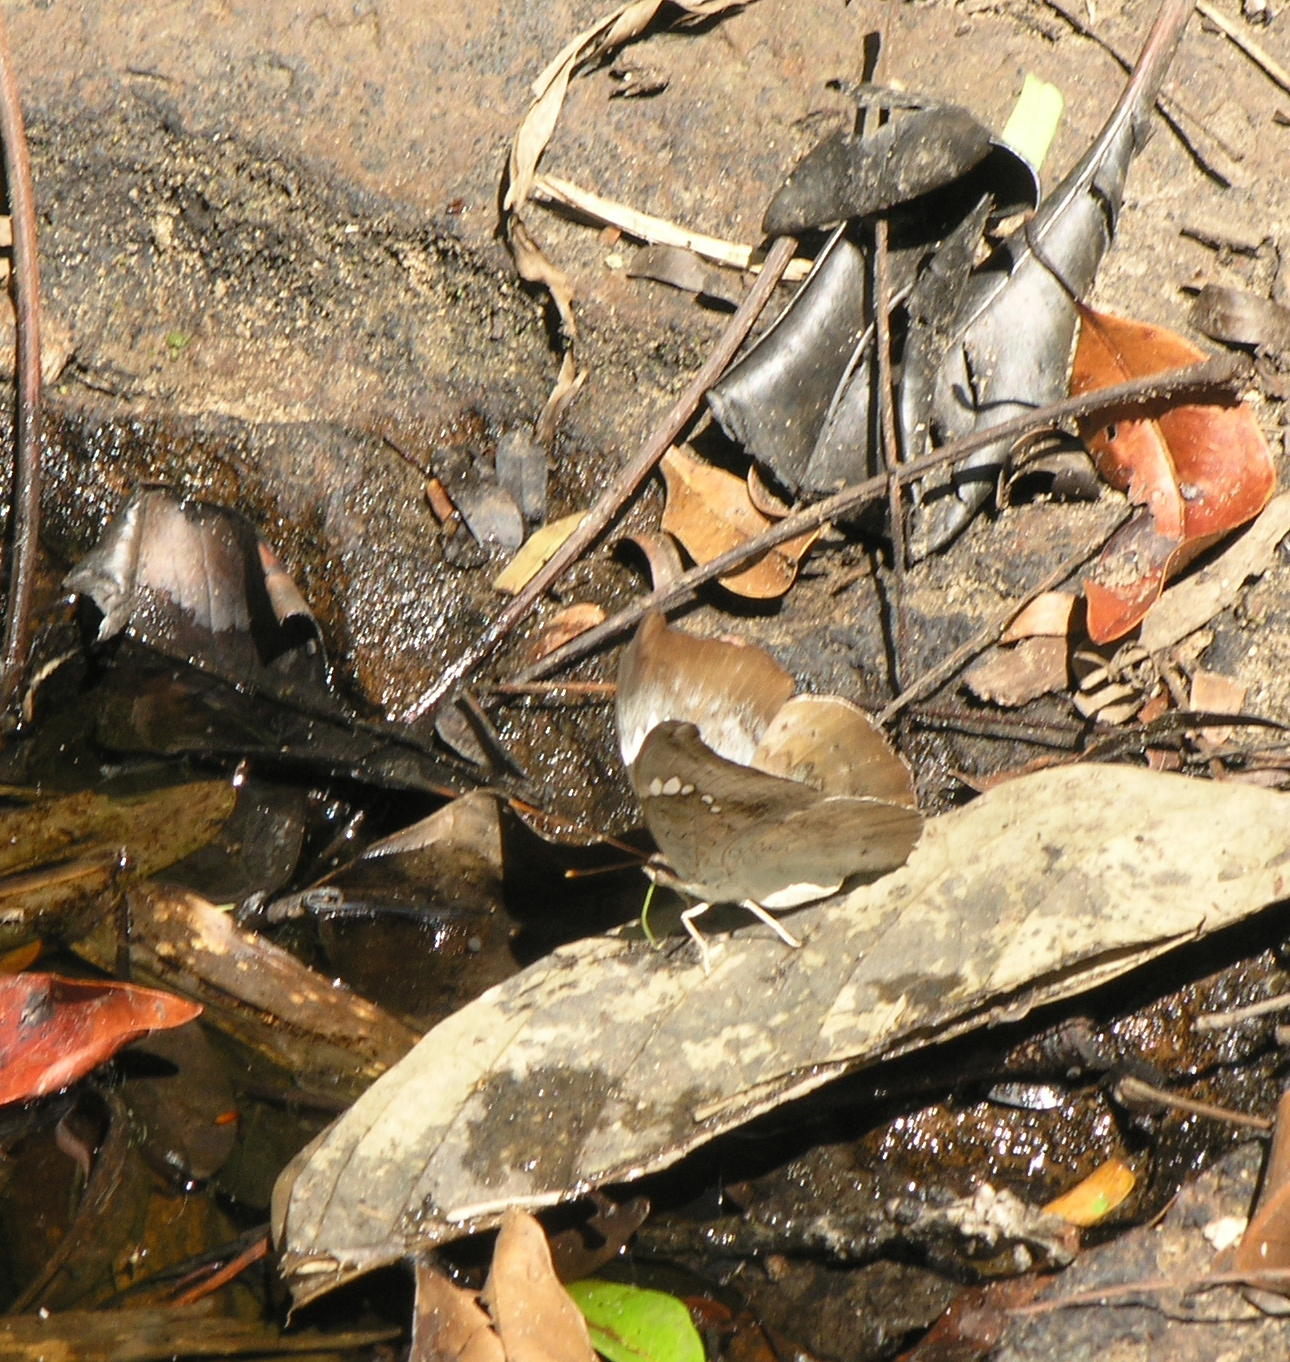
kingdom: Animalia
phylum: Arthropoda
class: Insecta
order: Lepidoptera
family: Nymphalidae
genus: Euthalia
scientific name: Euthalia Dophla evelina
